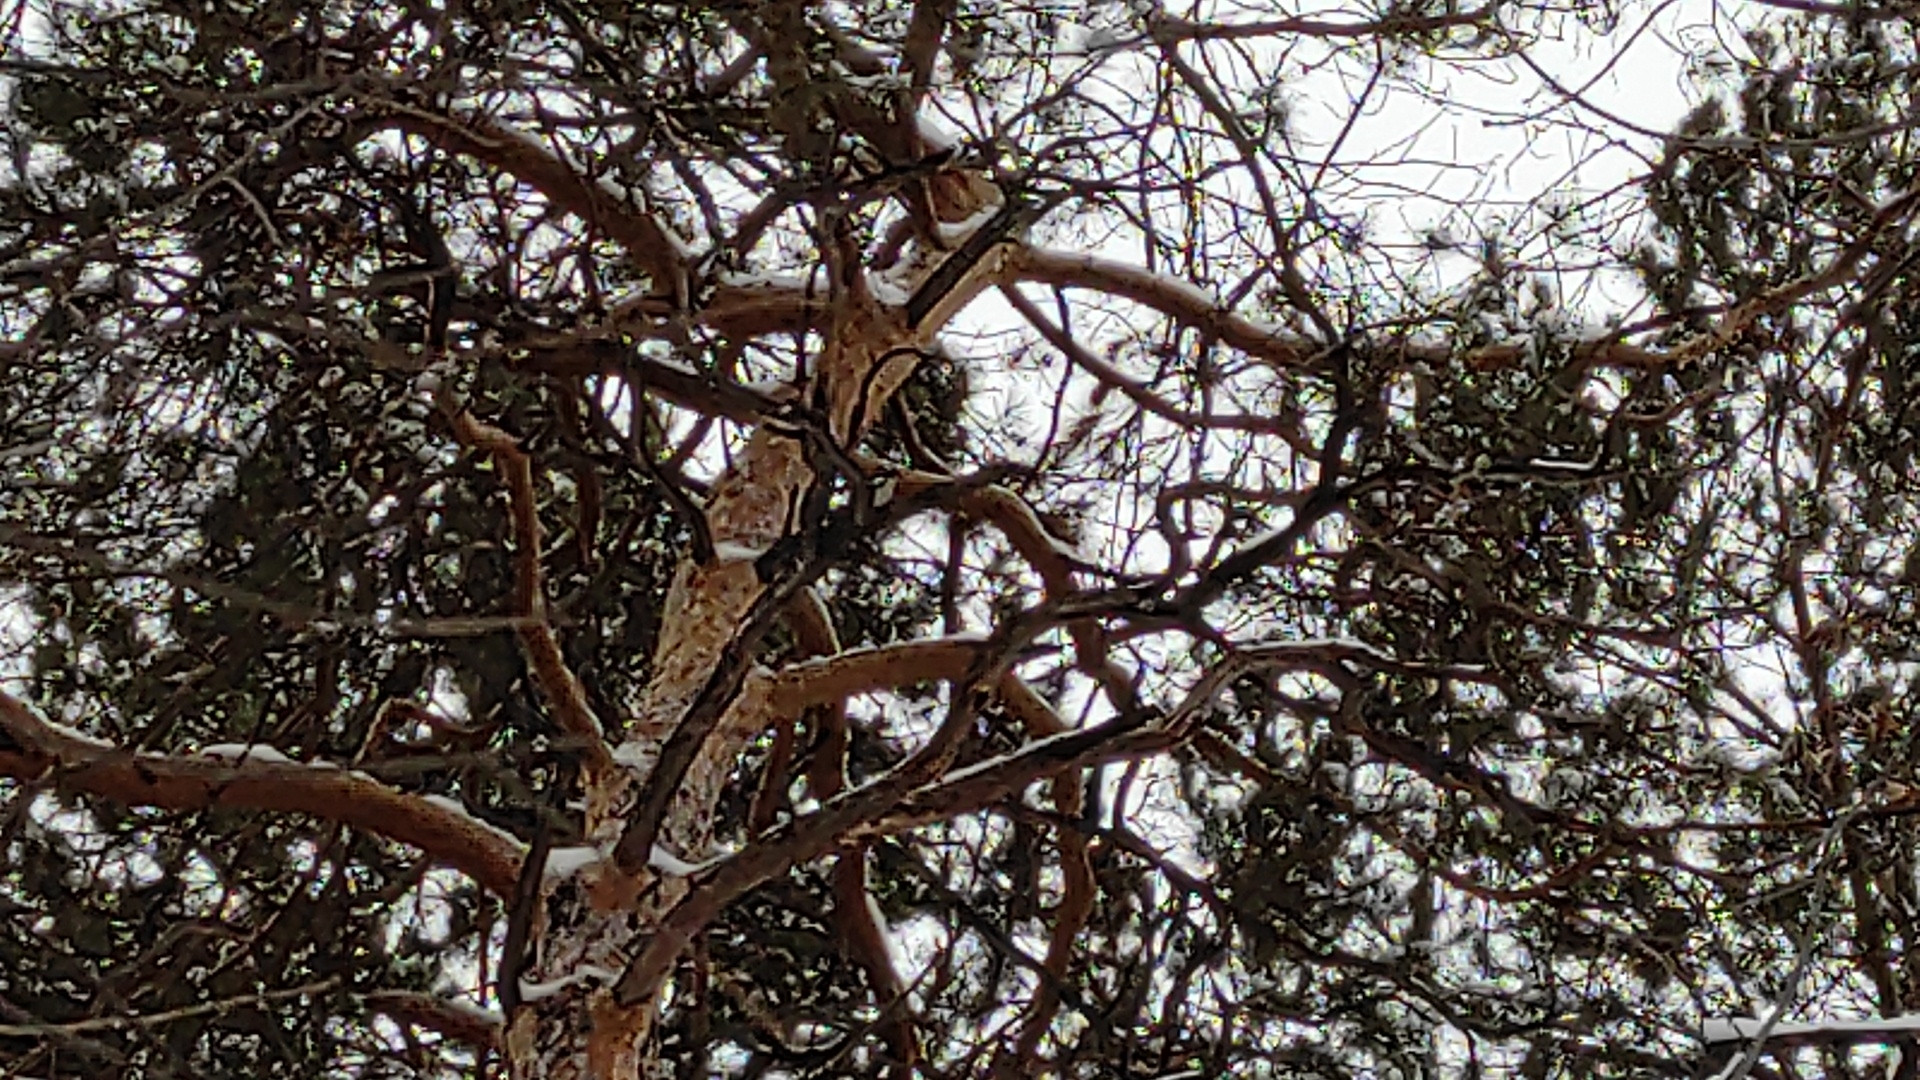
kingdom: Animalia
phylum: Chordata
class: Aves
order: Piciformes
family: Picidae
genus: Dendrocopos
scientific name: Dendrocopos leucotos
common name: White-backed woodpecker
